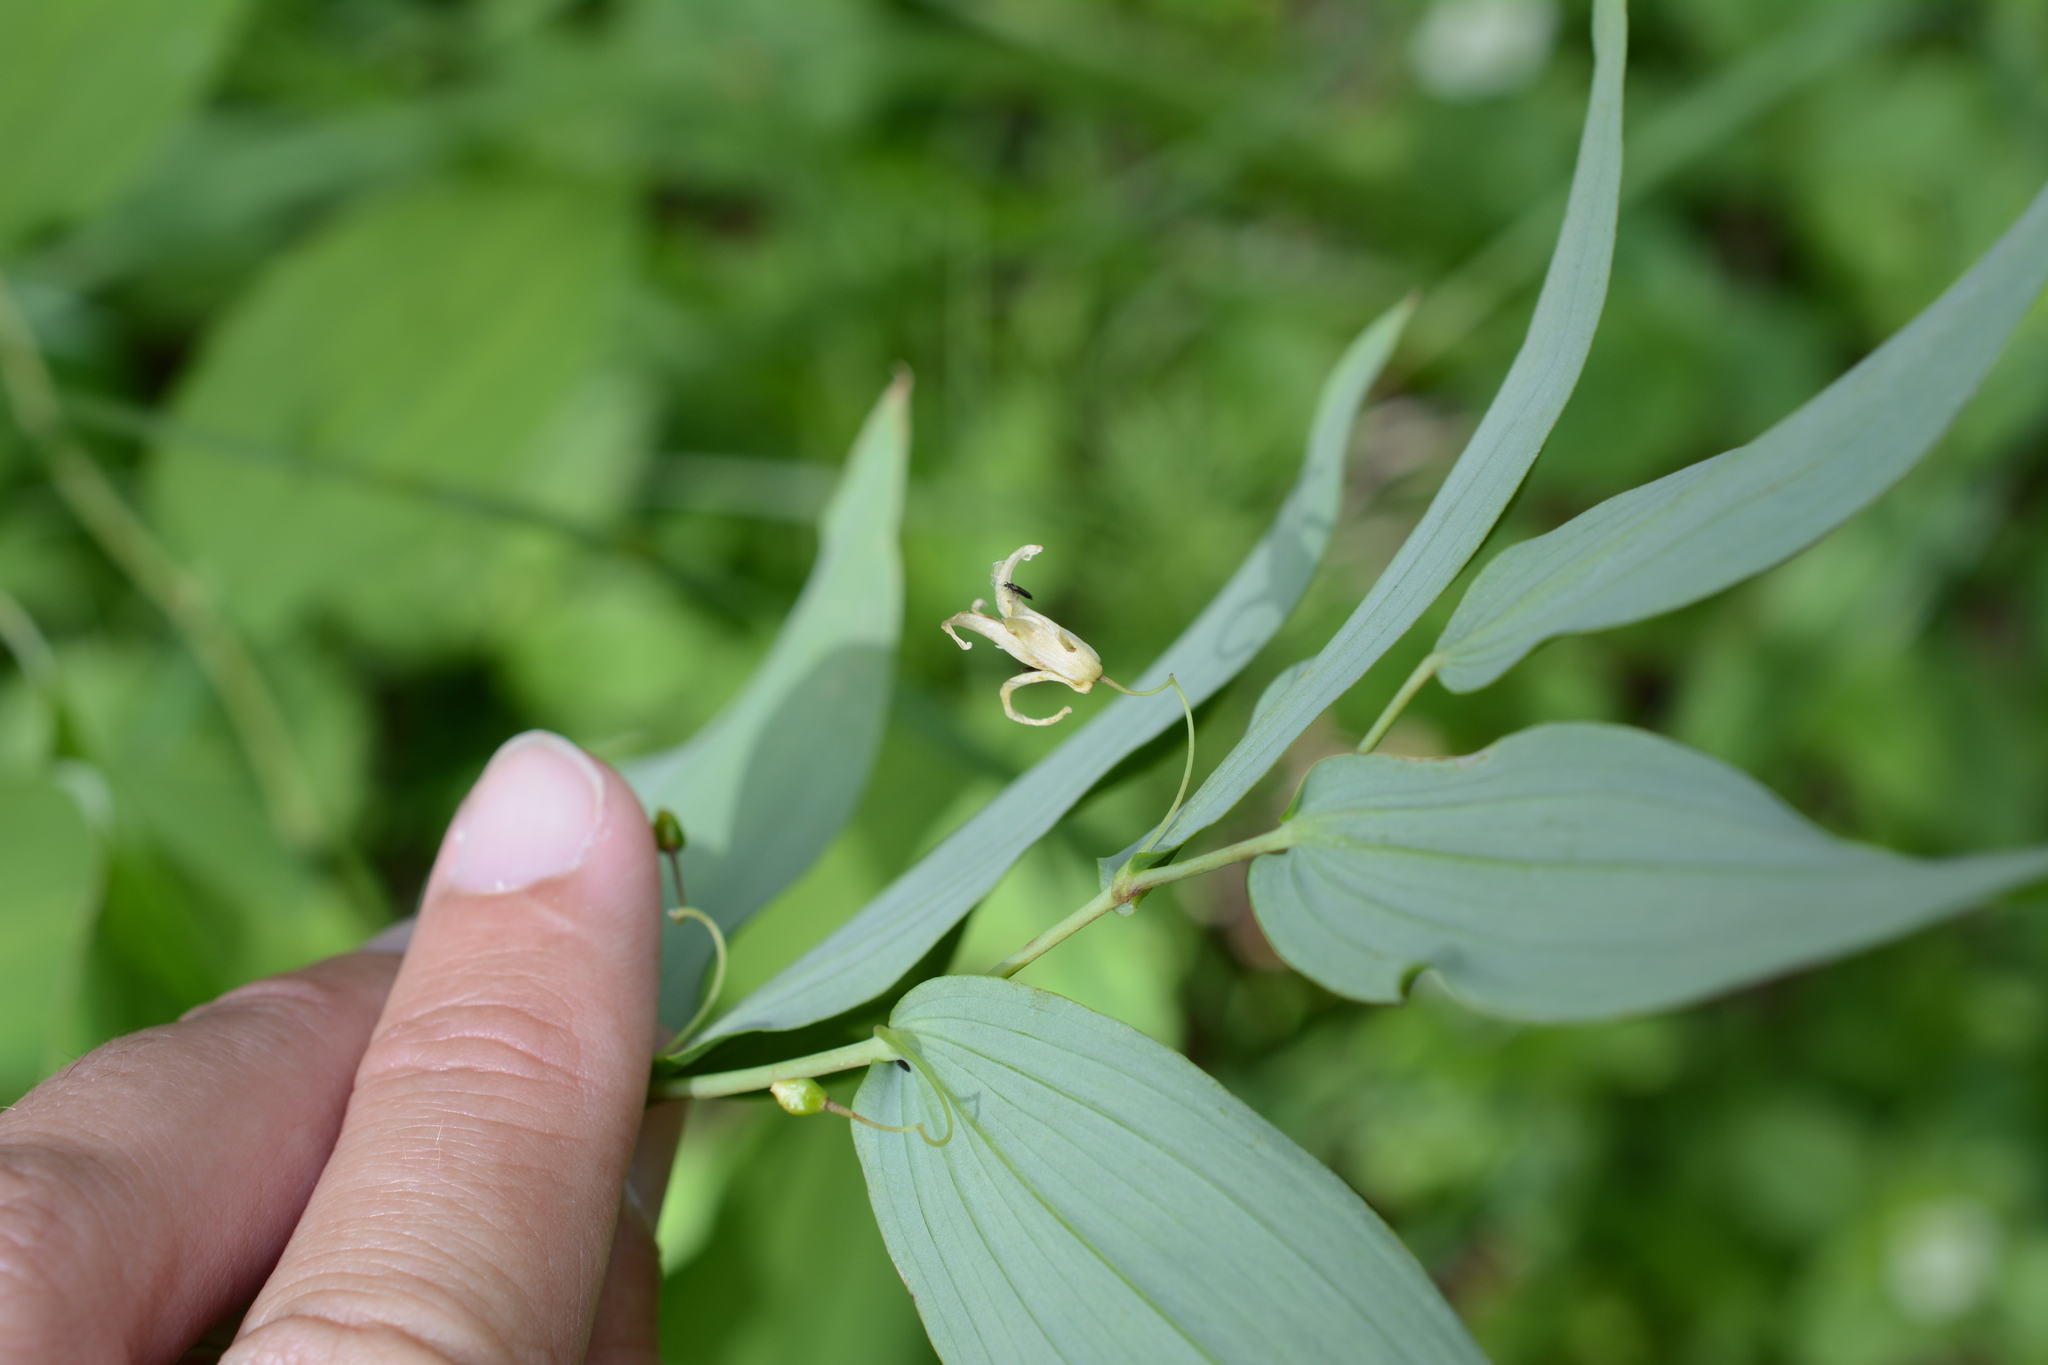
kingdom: Plantae
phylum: Tracheophyta
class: Liliopsida
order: Liliales
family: Liliaceae
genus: Streptopus
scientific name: Streptopus amplexifolius
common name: Clasp twisted stalk
